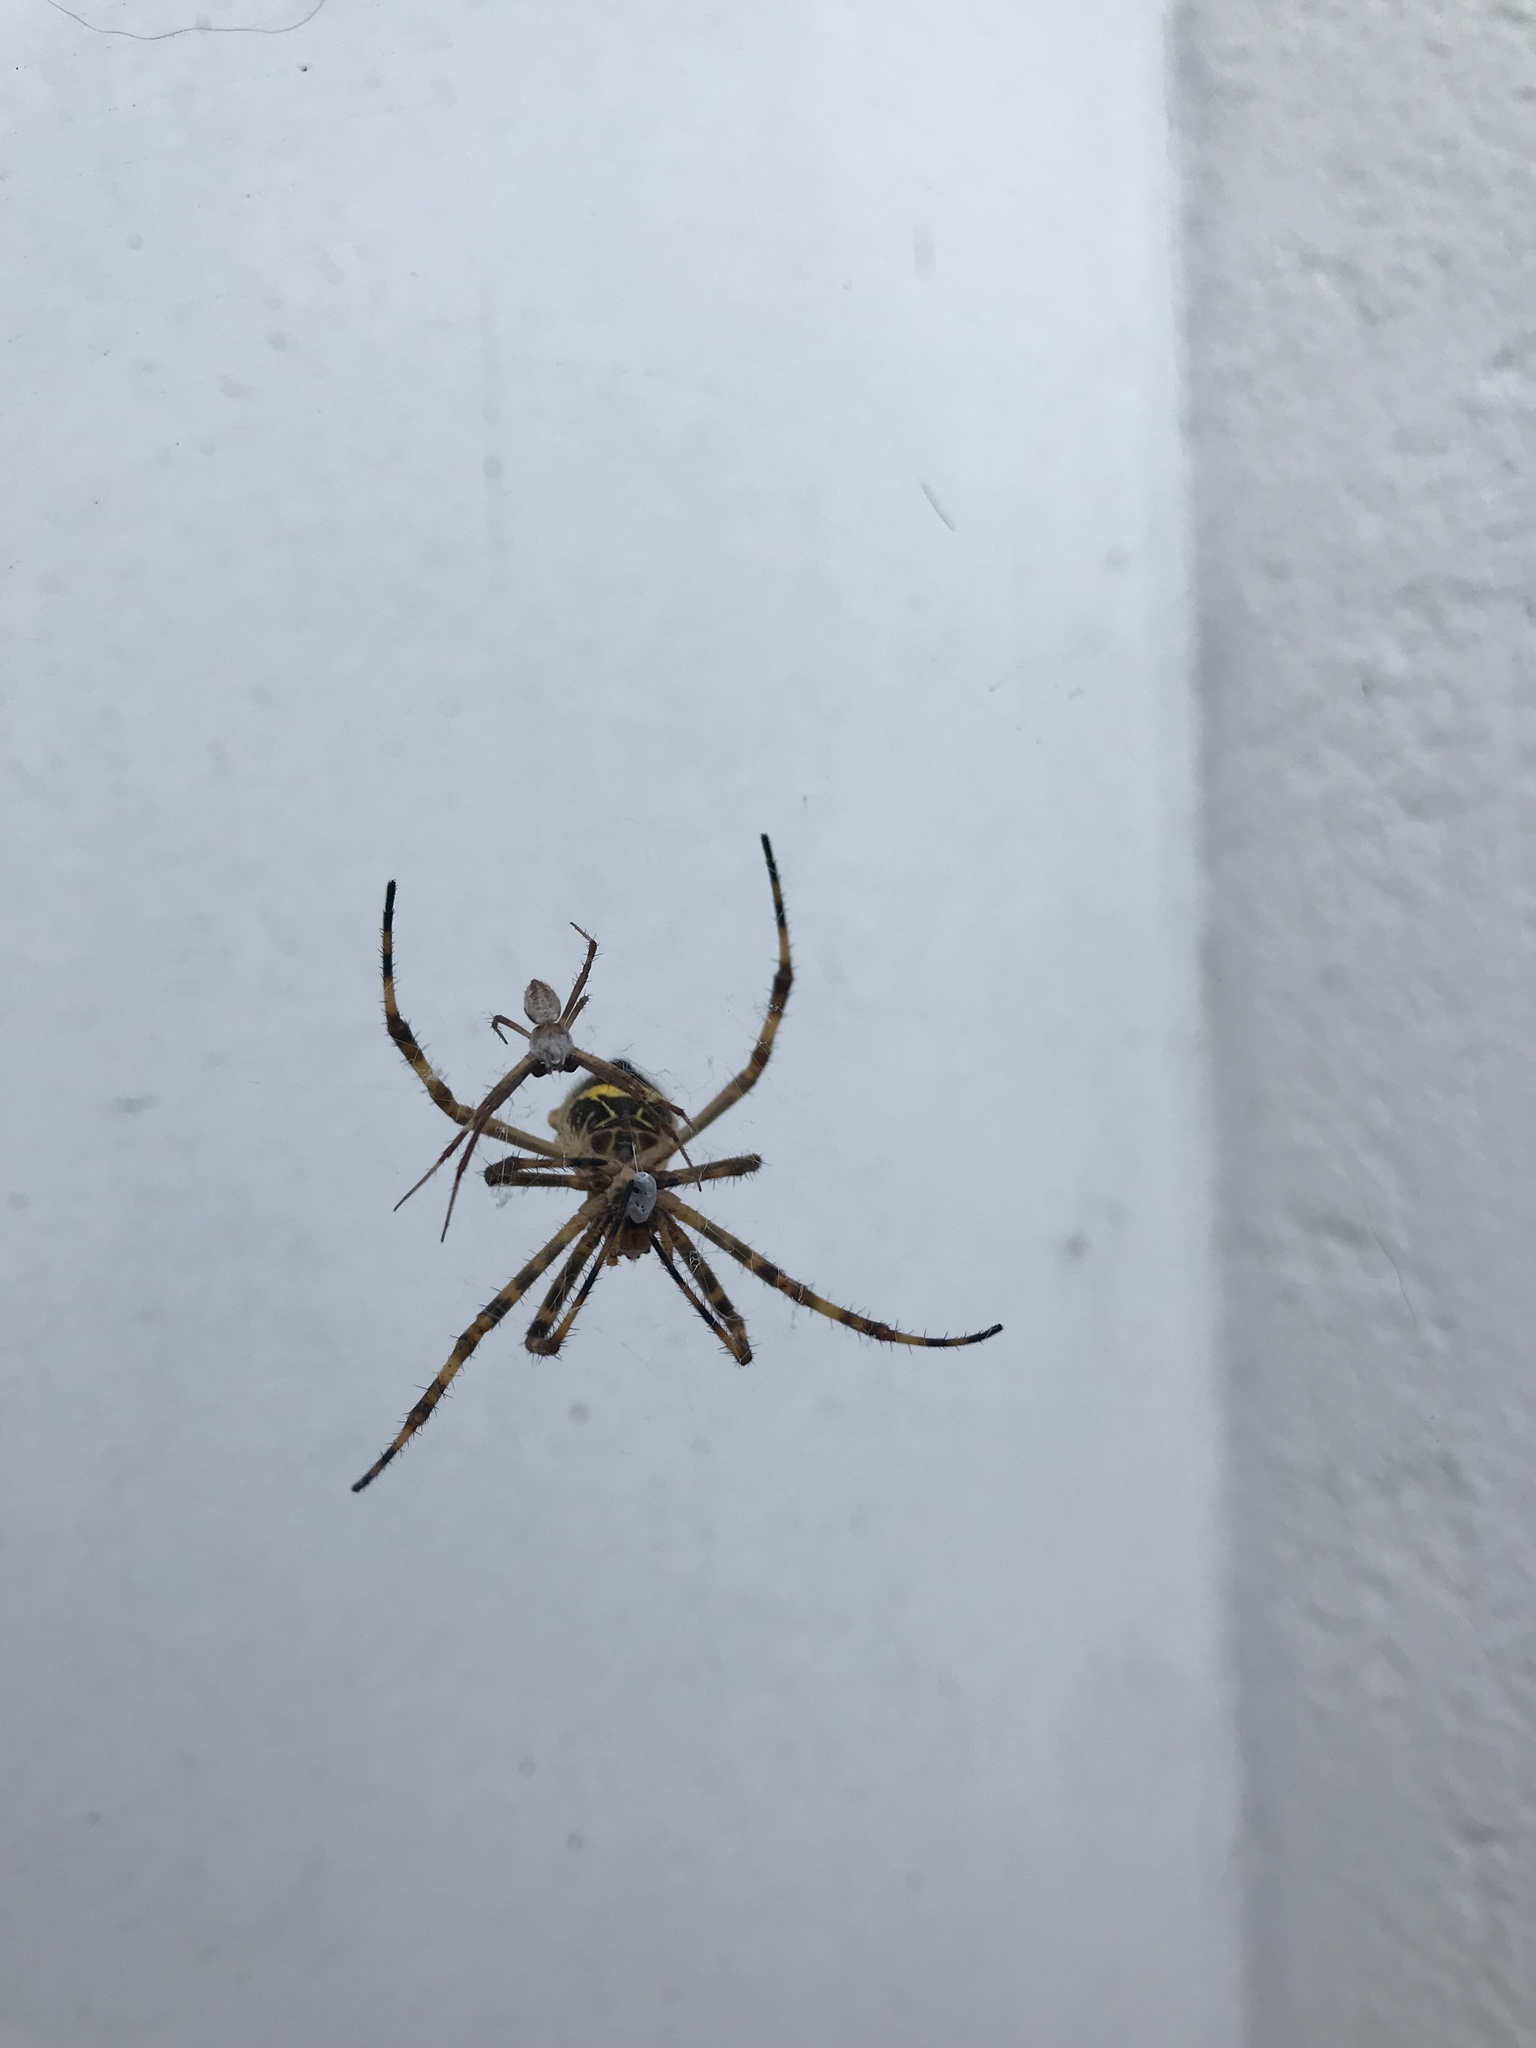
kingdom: Animalia
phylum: Arthropoda
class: Arachnida
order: Araneae
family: Araneidae
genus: Argiope
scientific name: Argiope argentata
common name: Orb weavers
